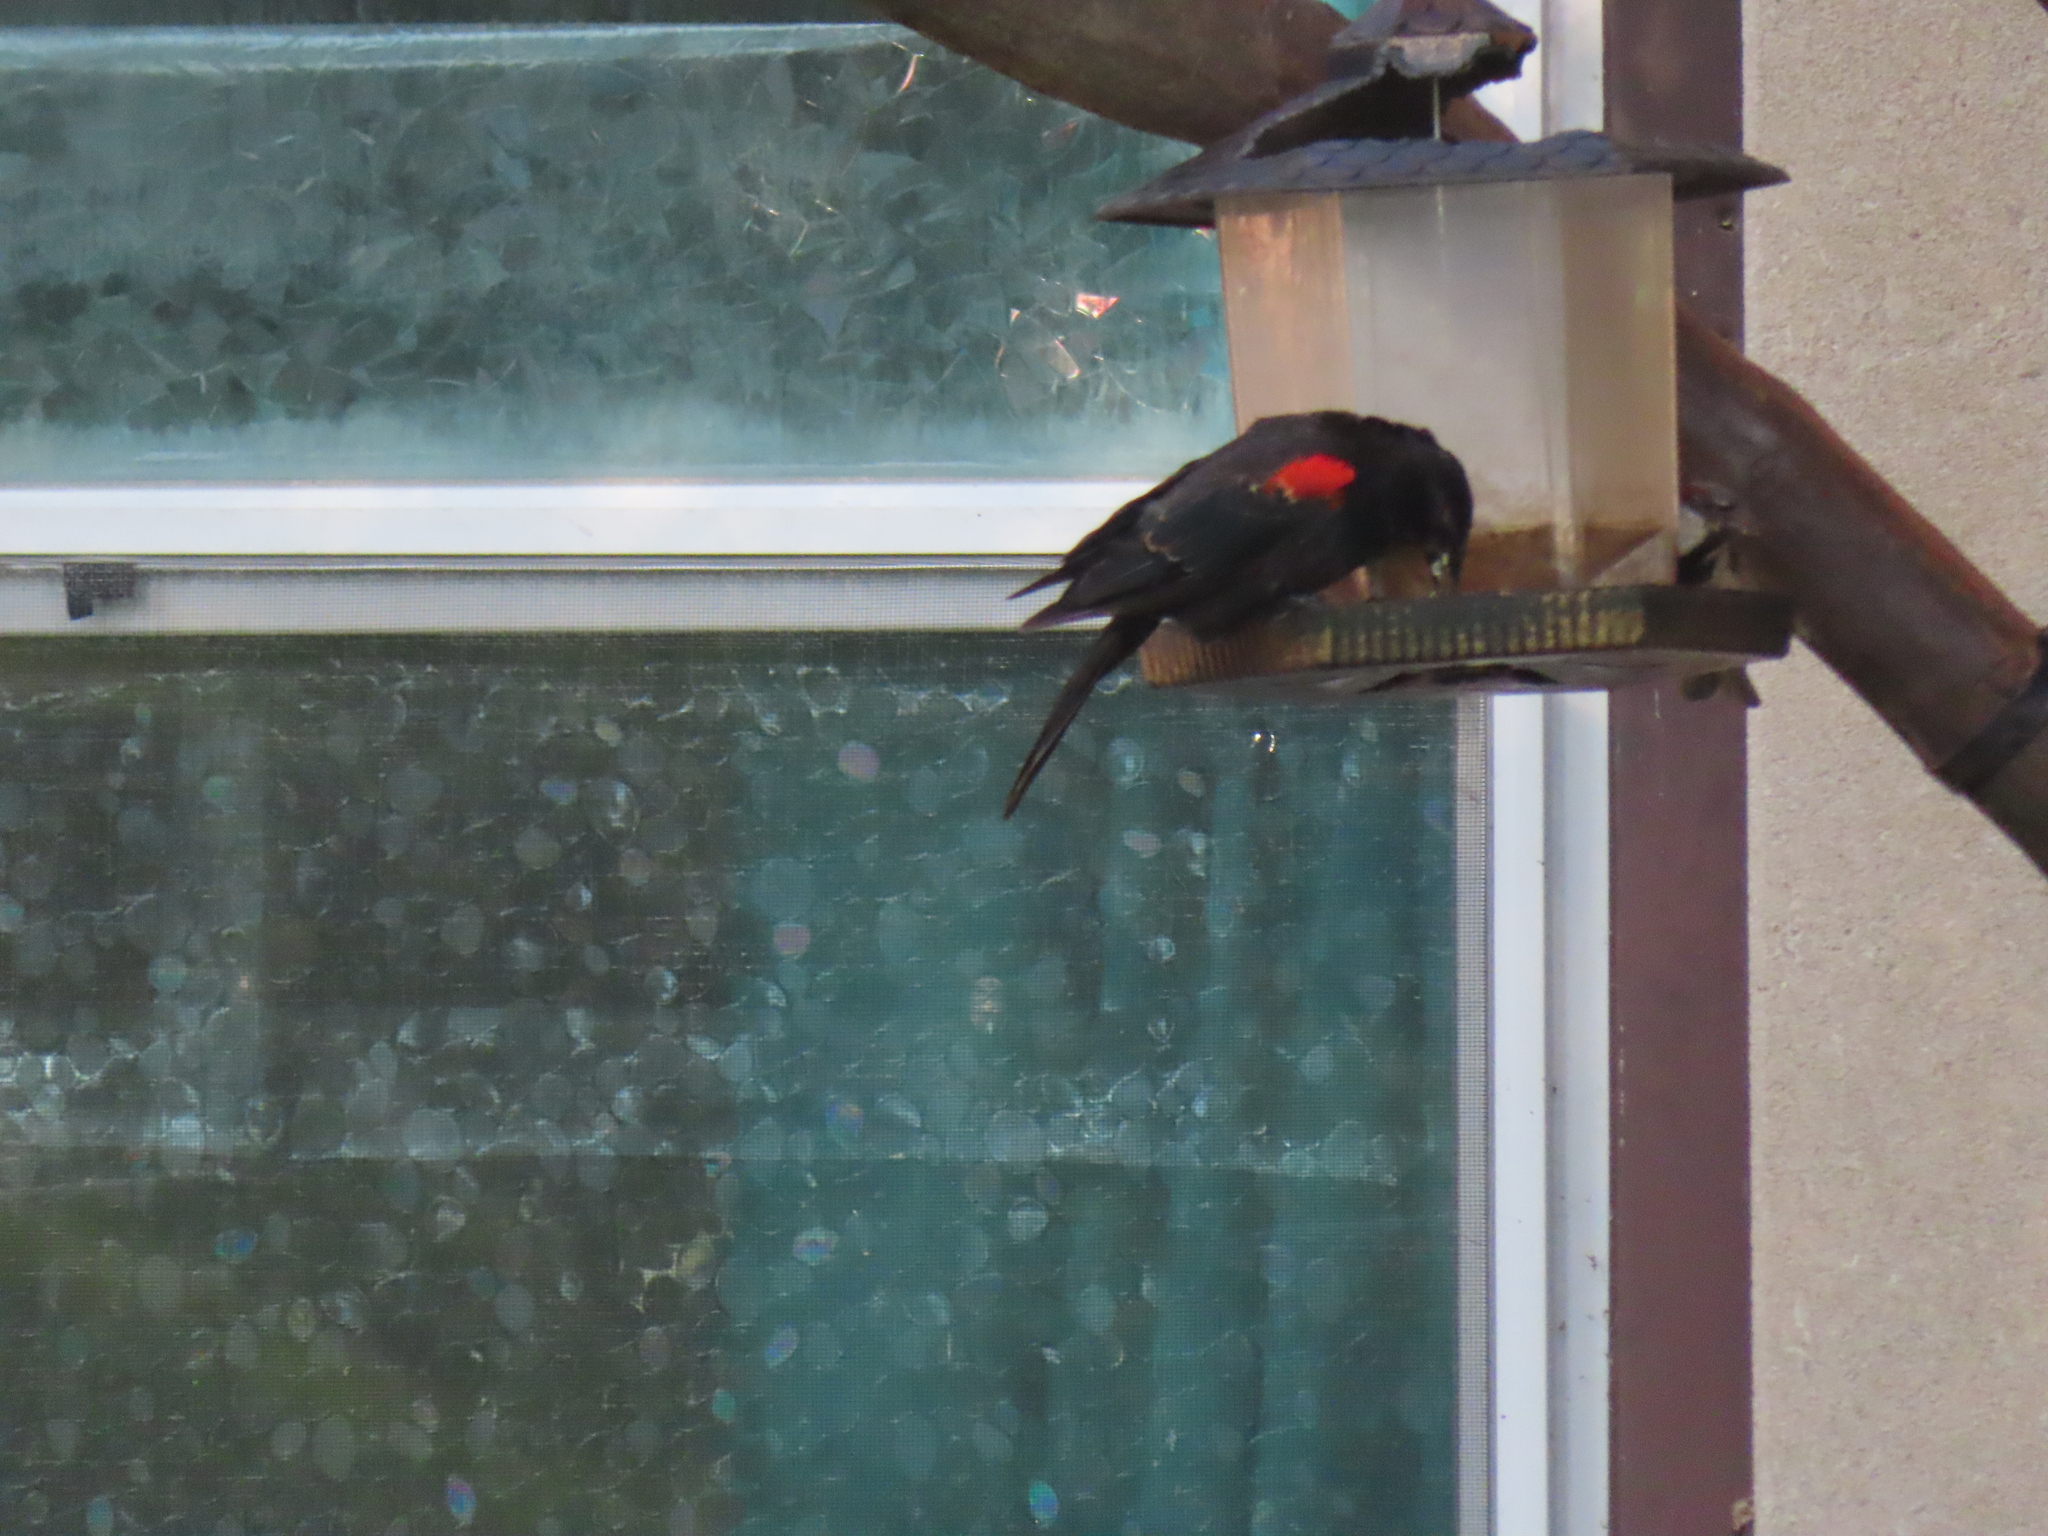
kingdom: Animalia
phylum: Chordata
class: Aves
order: Passeriformes
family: Icteridae
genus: Agelaius
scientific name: Agelaius phoeniceus
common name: Red-winged blackbird
